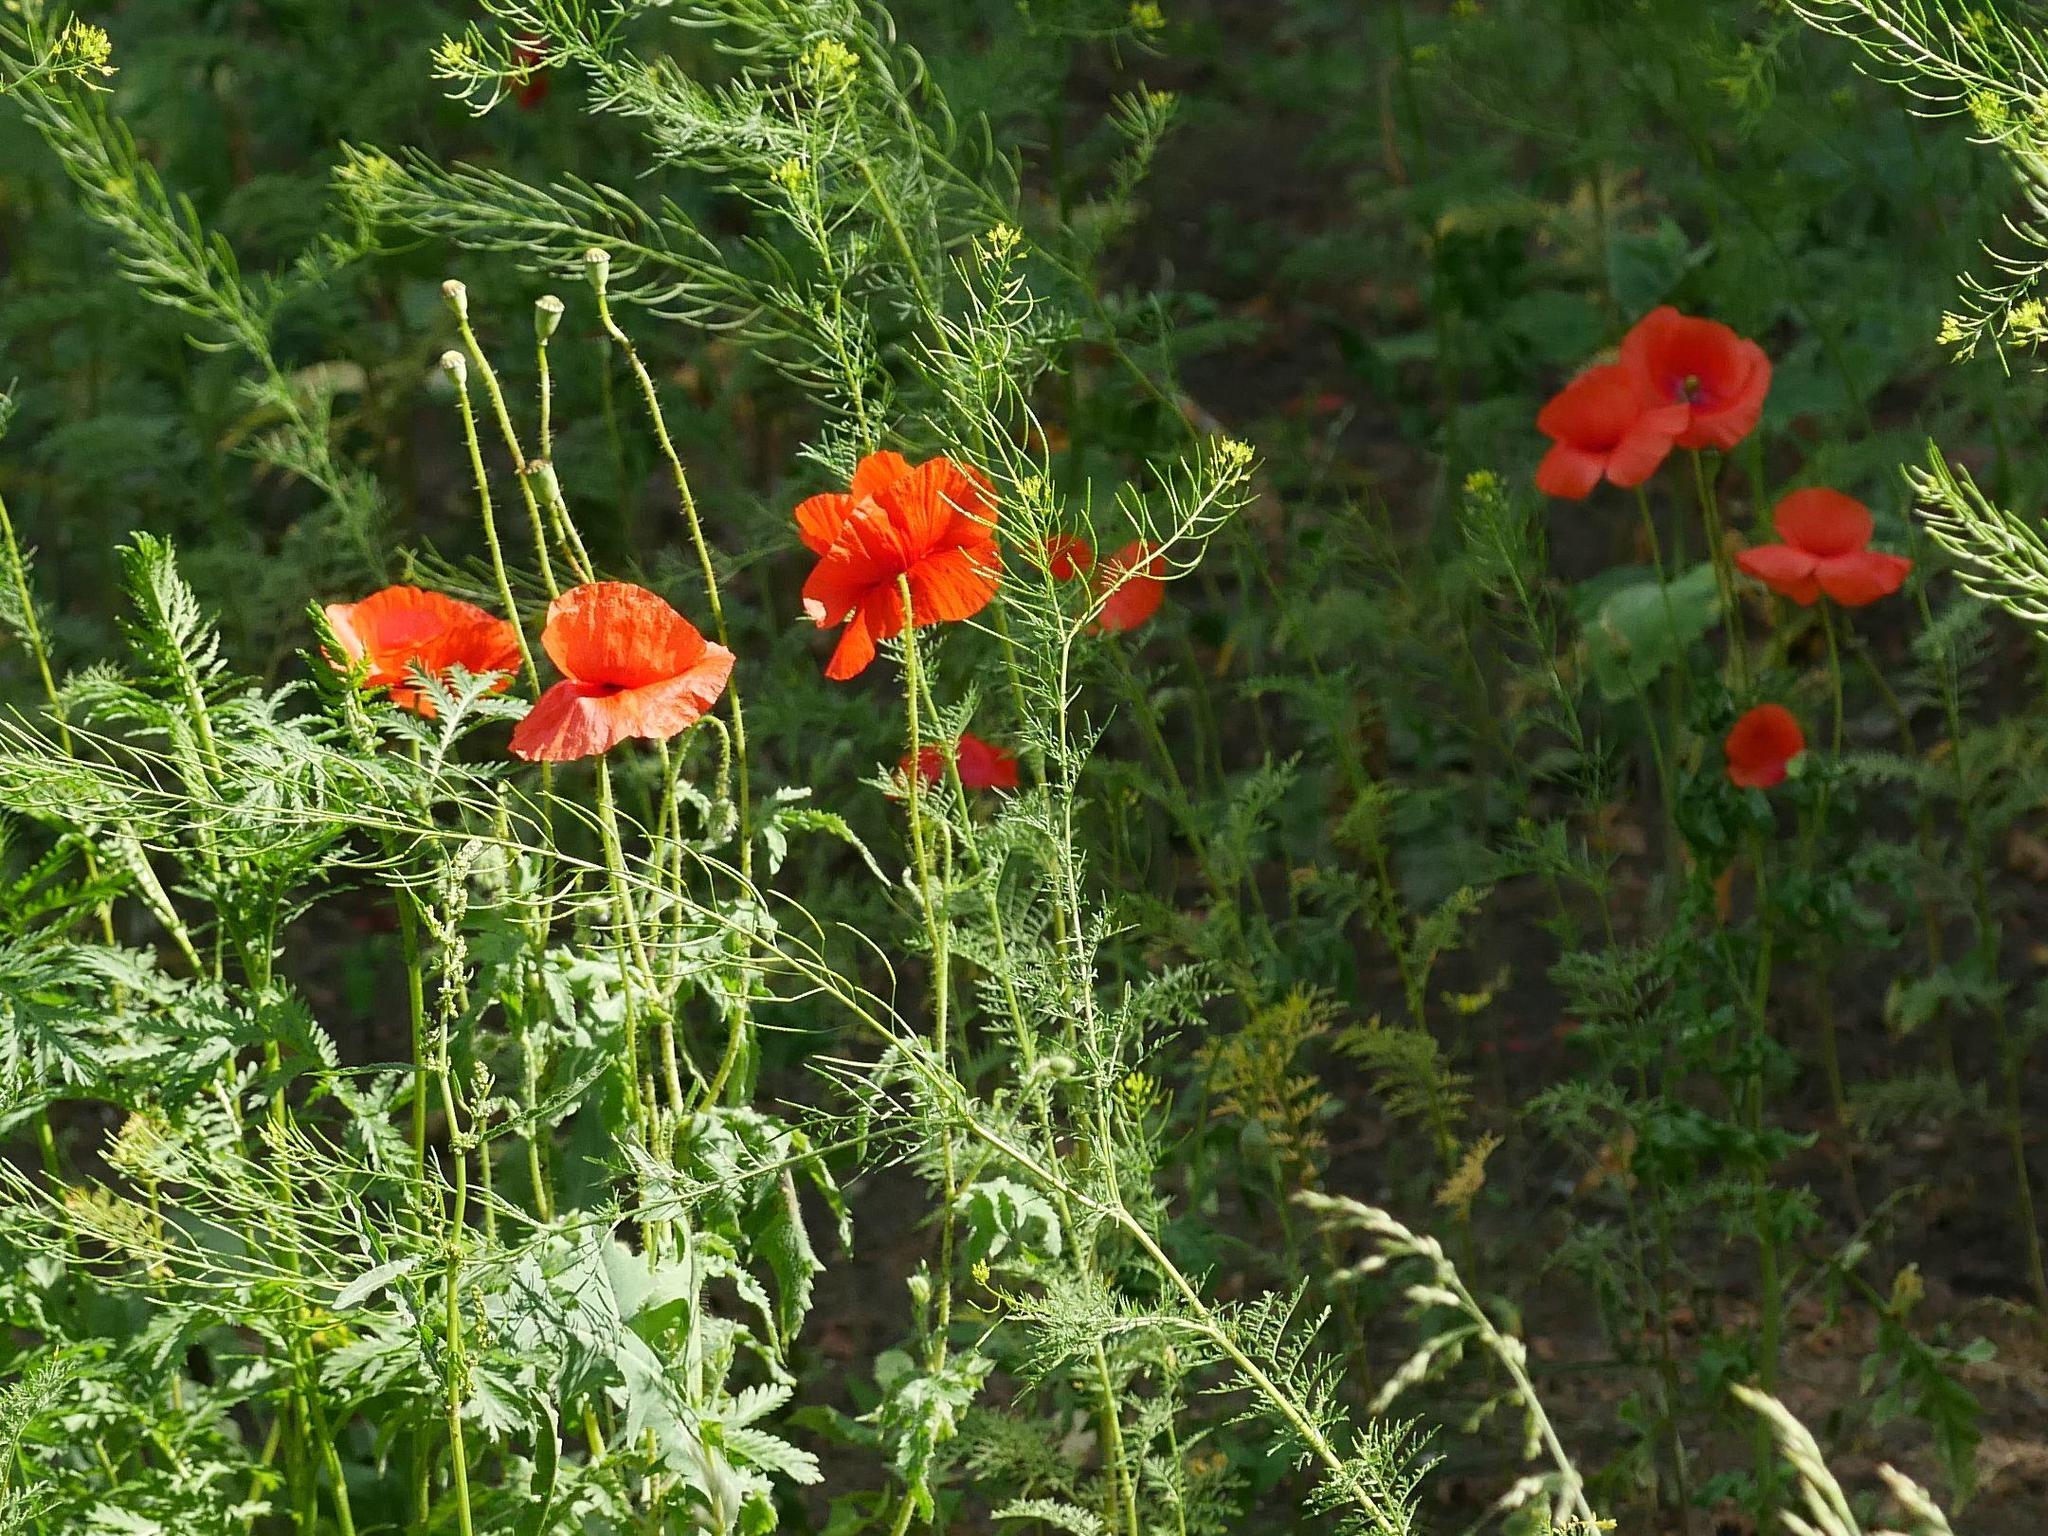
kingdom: Plantae
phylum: Tracheophyta
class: Magnoliopsida
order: Asterales
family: Asteraceae
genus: Tanacetum
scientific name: Tanacetum vulgare
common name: Common tansy
